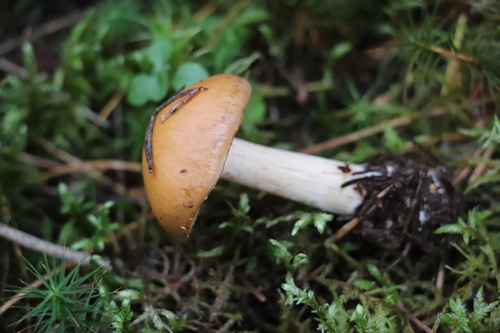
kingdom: Fungi
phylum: Basidiomycota
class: Agaricomycetes
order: Agaricales
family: Cortinariaceae
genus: Cortinarius
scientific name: Cortinarius polymorphus
